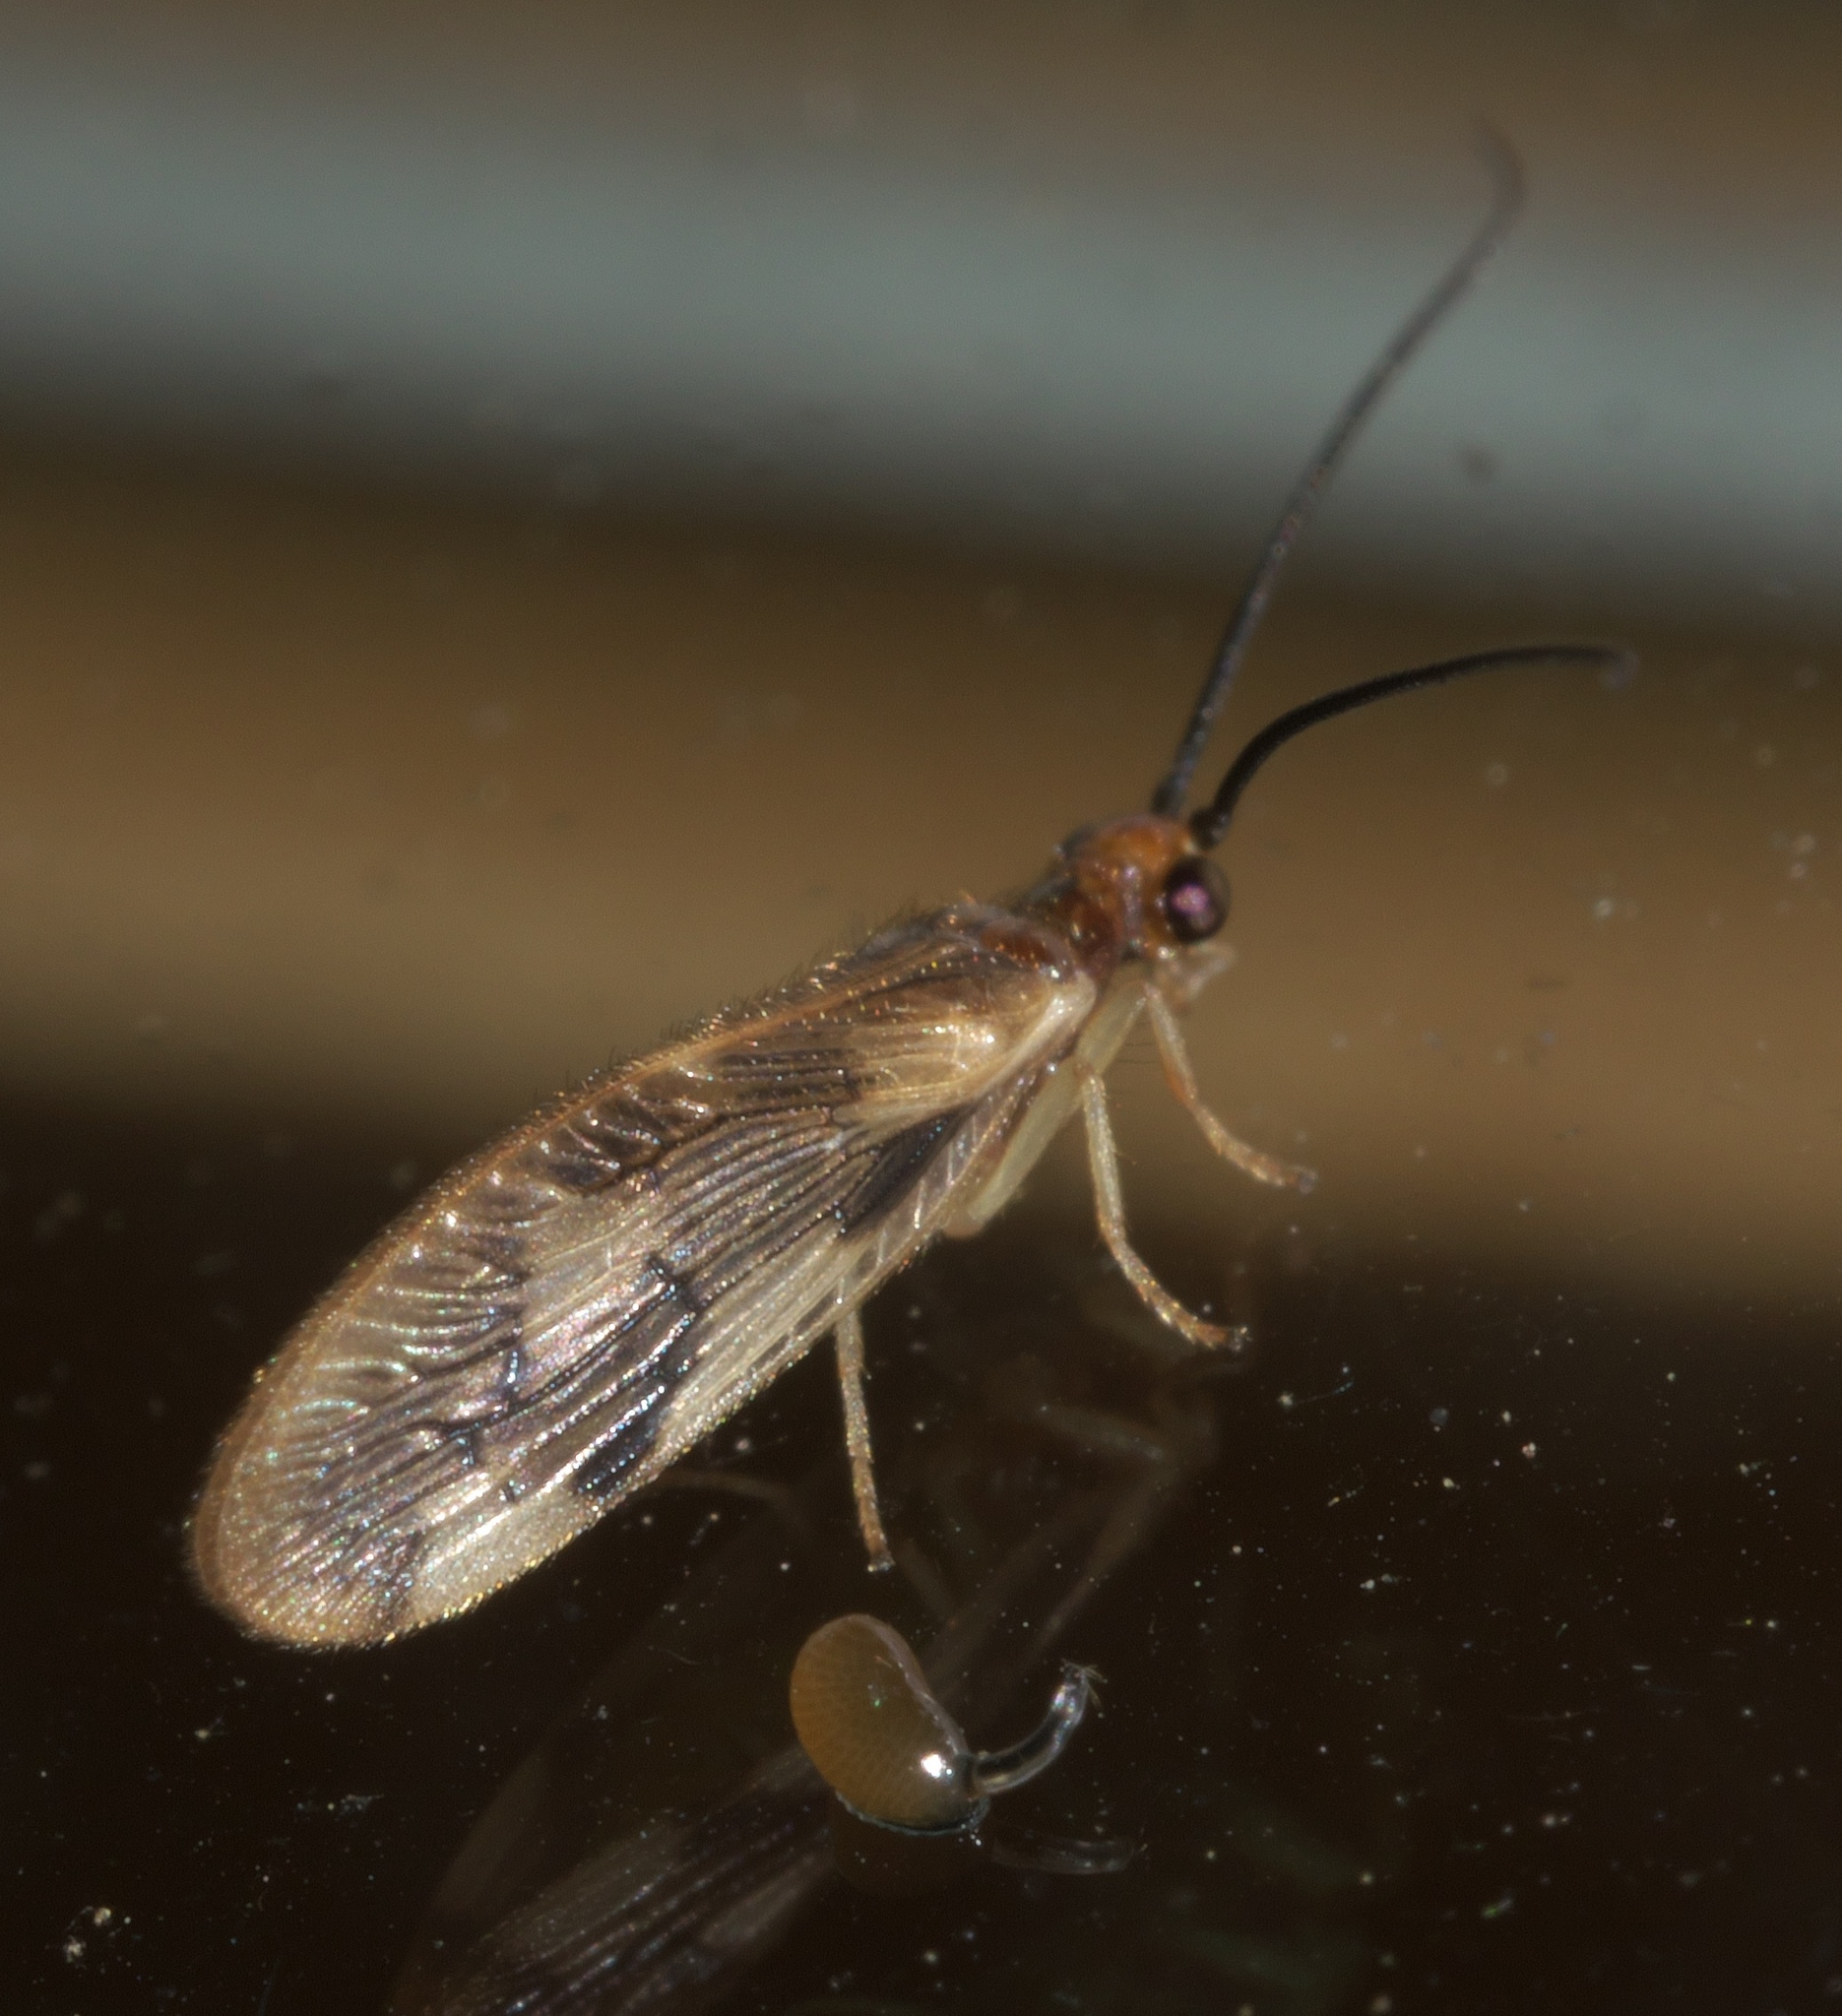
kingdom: Animalia
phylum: Arthropoda
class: Insecta
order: Neuroptera
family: Sisyridae
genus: Climacia
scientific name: Climacia areolaris
